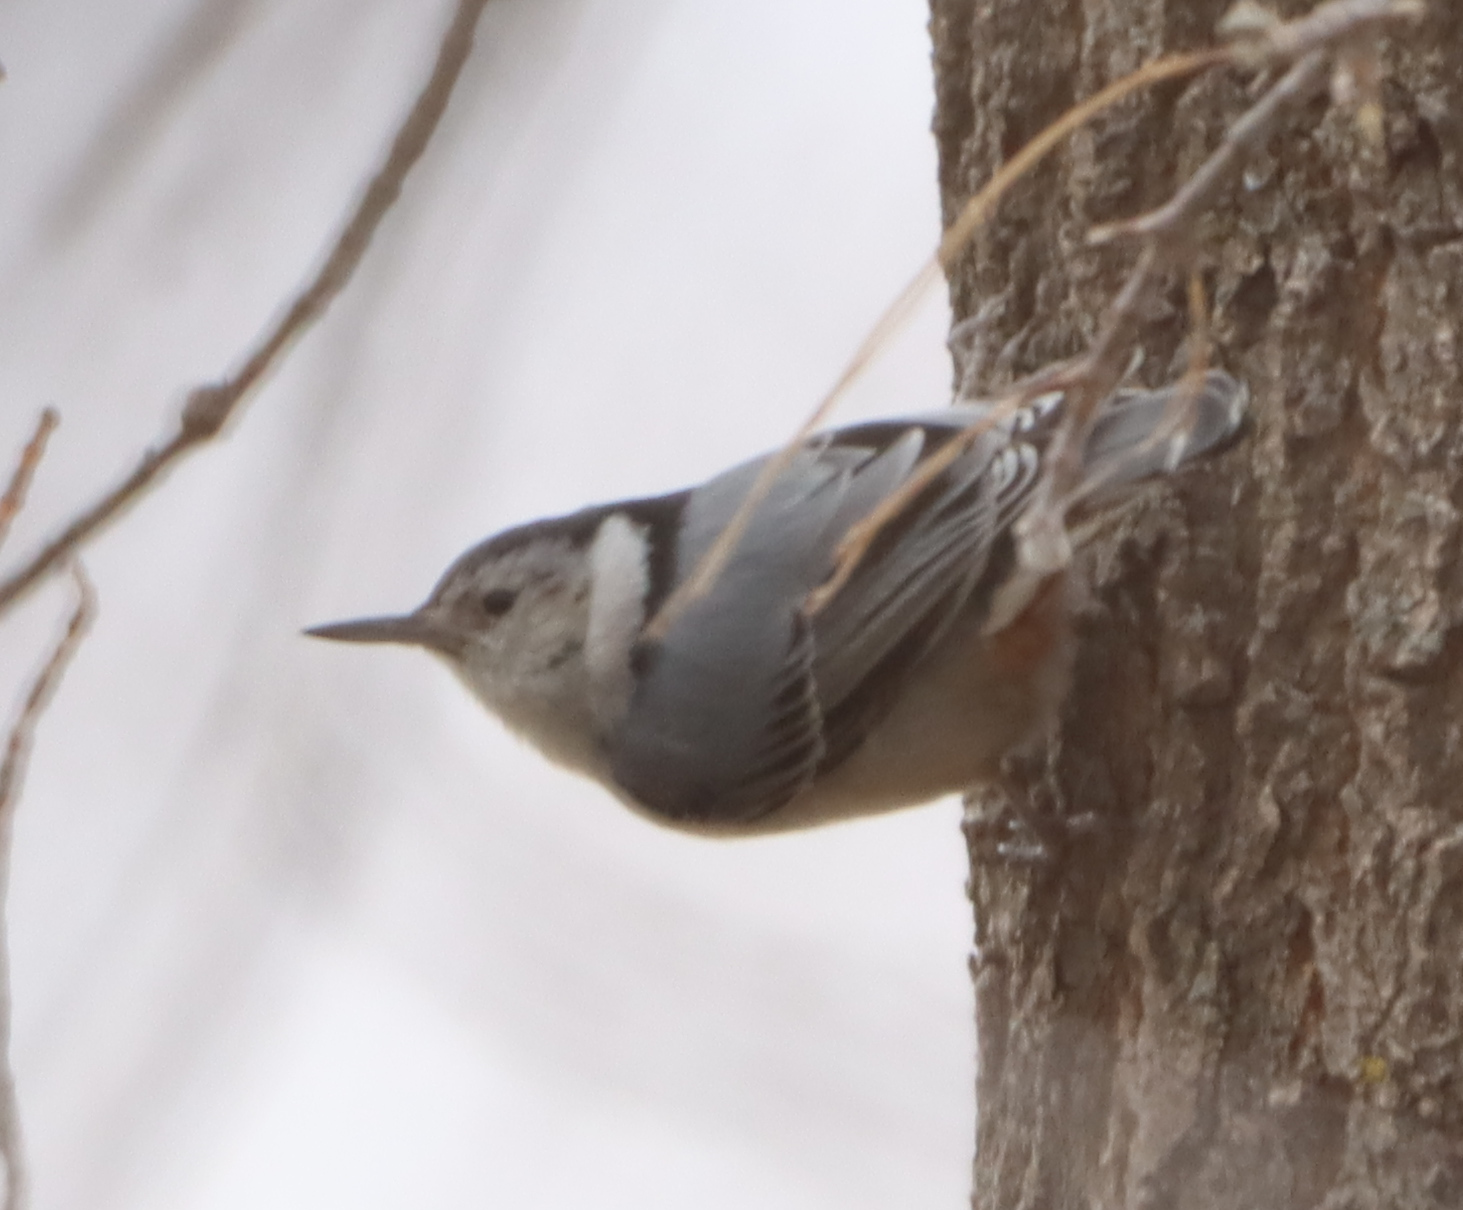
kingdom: Animalia
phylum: Chordata
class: Aves
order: Passeriformes
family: Sittidae
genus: Sitta
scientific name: Sitta carolinensis
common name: White-breasted nuthatch
